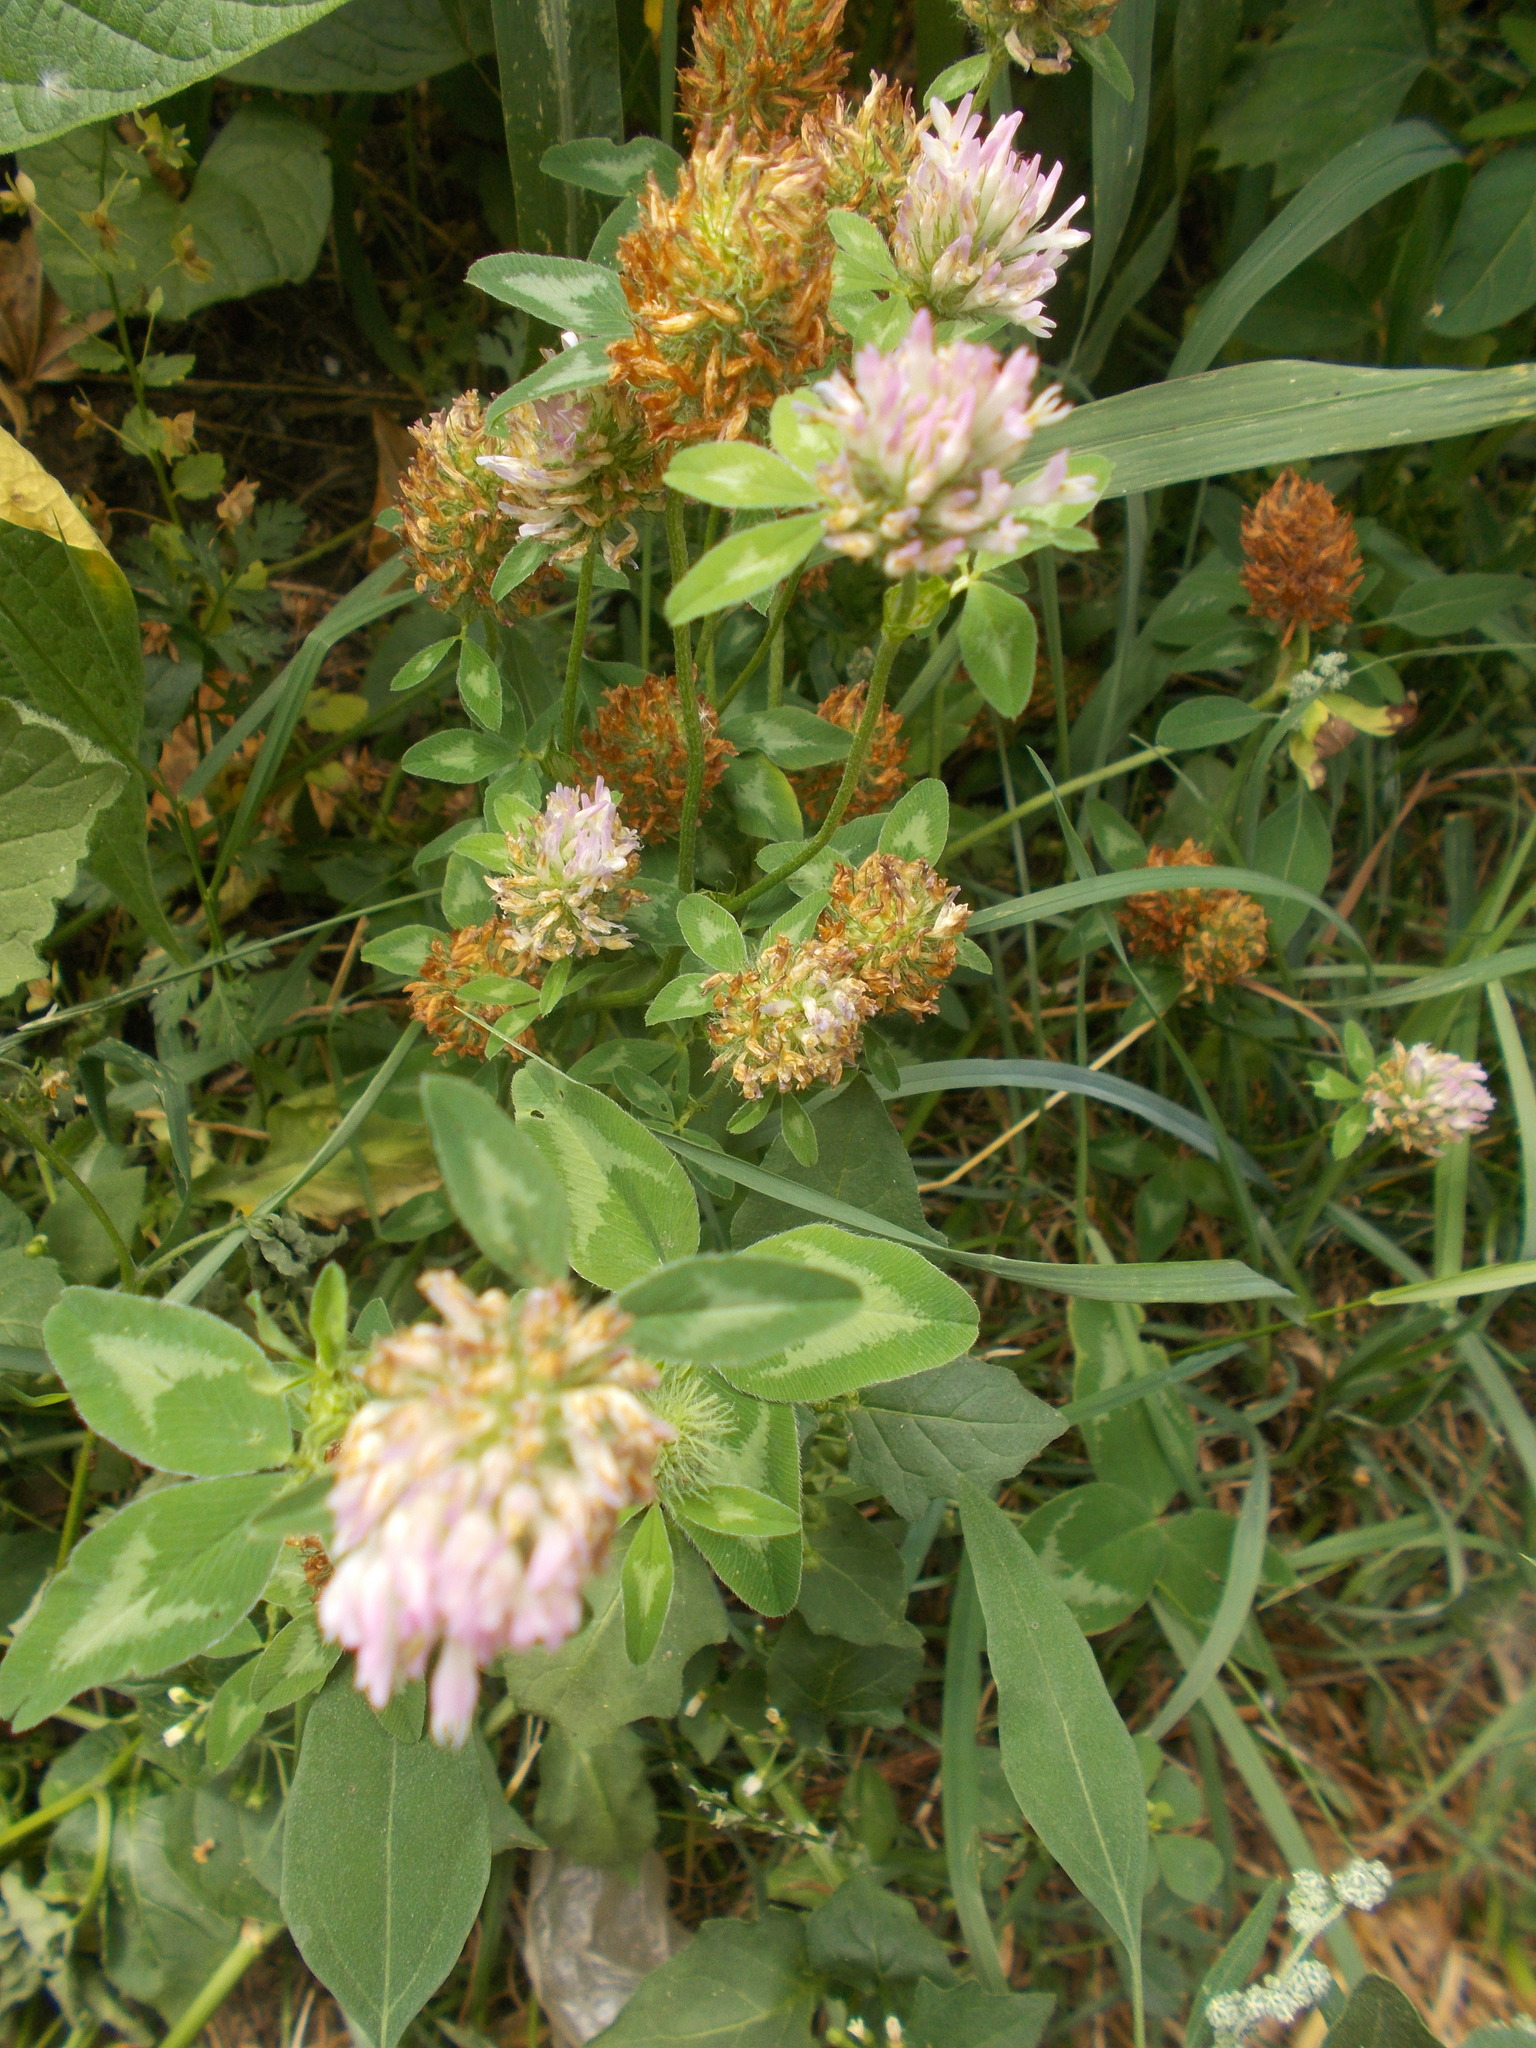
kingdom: Plantae
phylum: Tracheophyta
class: Magnoliopsida
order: Fabales
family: Fabaceae
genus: Trifolium
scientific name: Trifolium pratense
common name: Red clover
